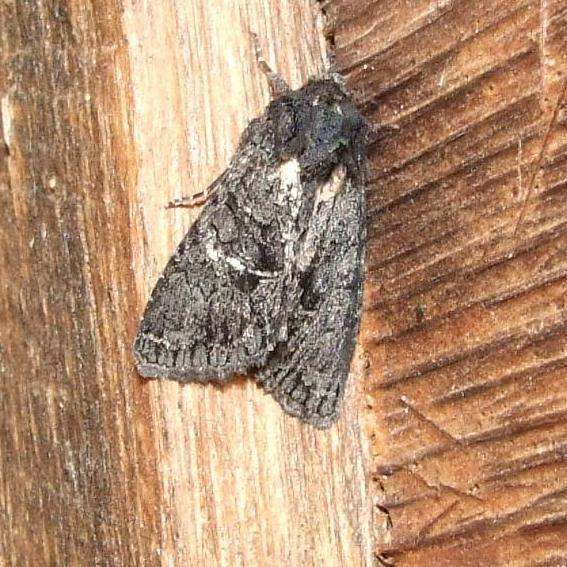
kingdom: Animalia
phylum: Arthropoda
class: Insecta
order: Lepidoptera
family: Noctuidae
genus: Neumichtis
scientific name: Neumichtis nigerrima
